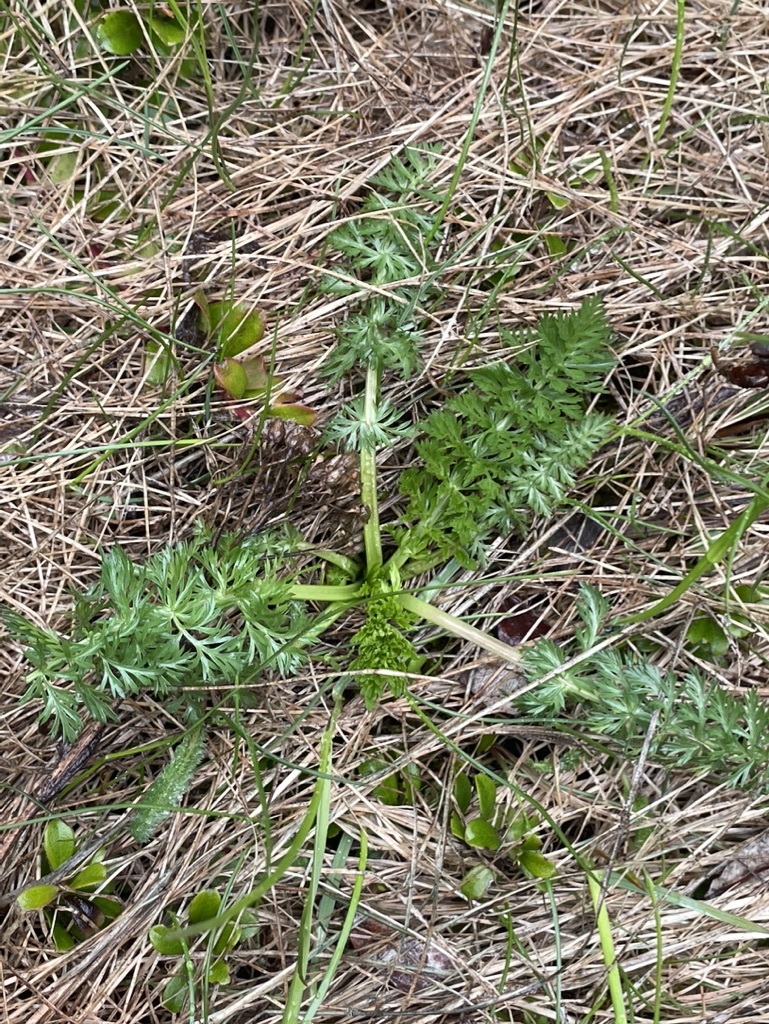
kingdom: Plantae
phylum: Tracheophyta
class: Magnoliopsida
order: Apiales
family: Apiaceae
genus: Carum
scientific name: Carum carvi
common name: Caraway
